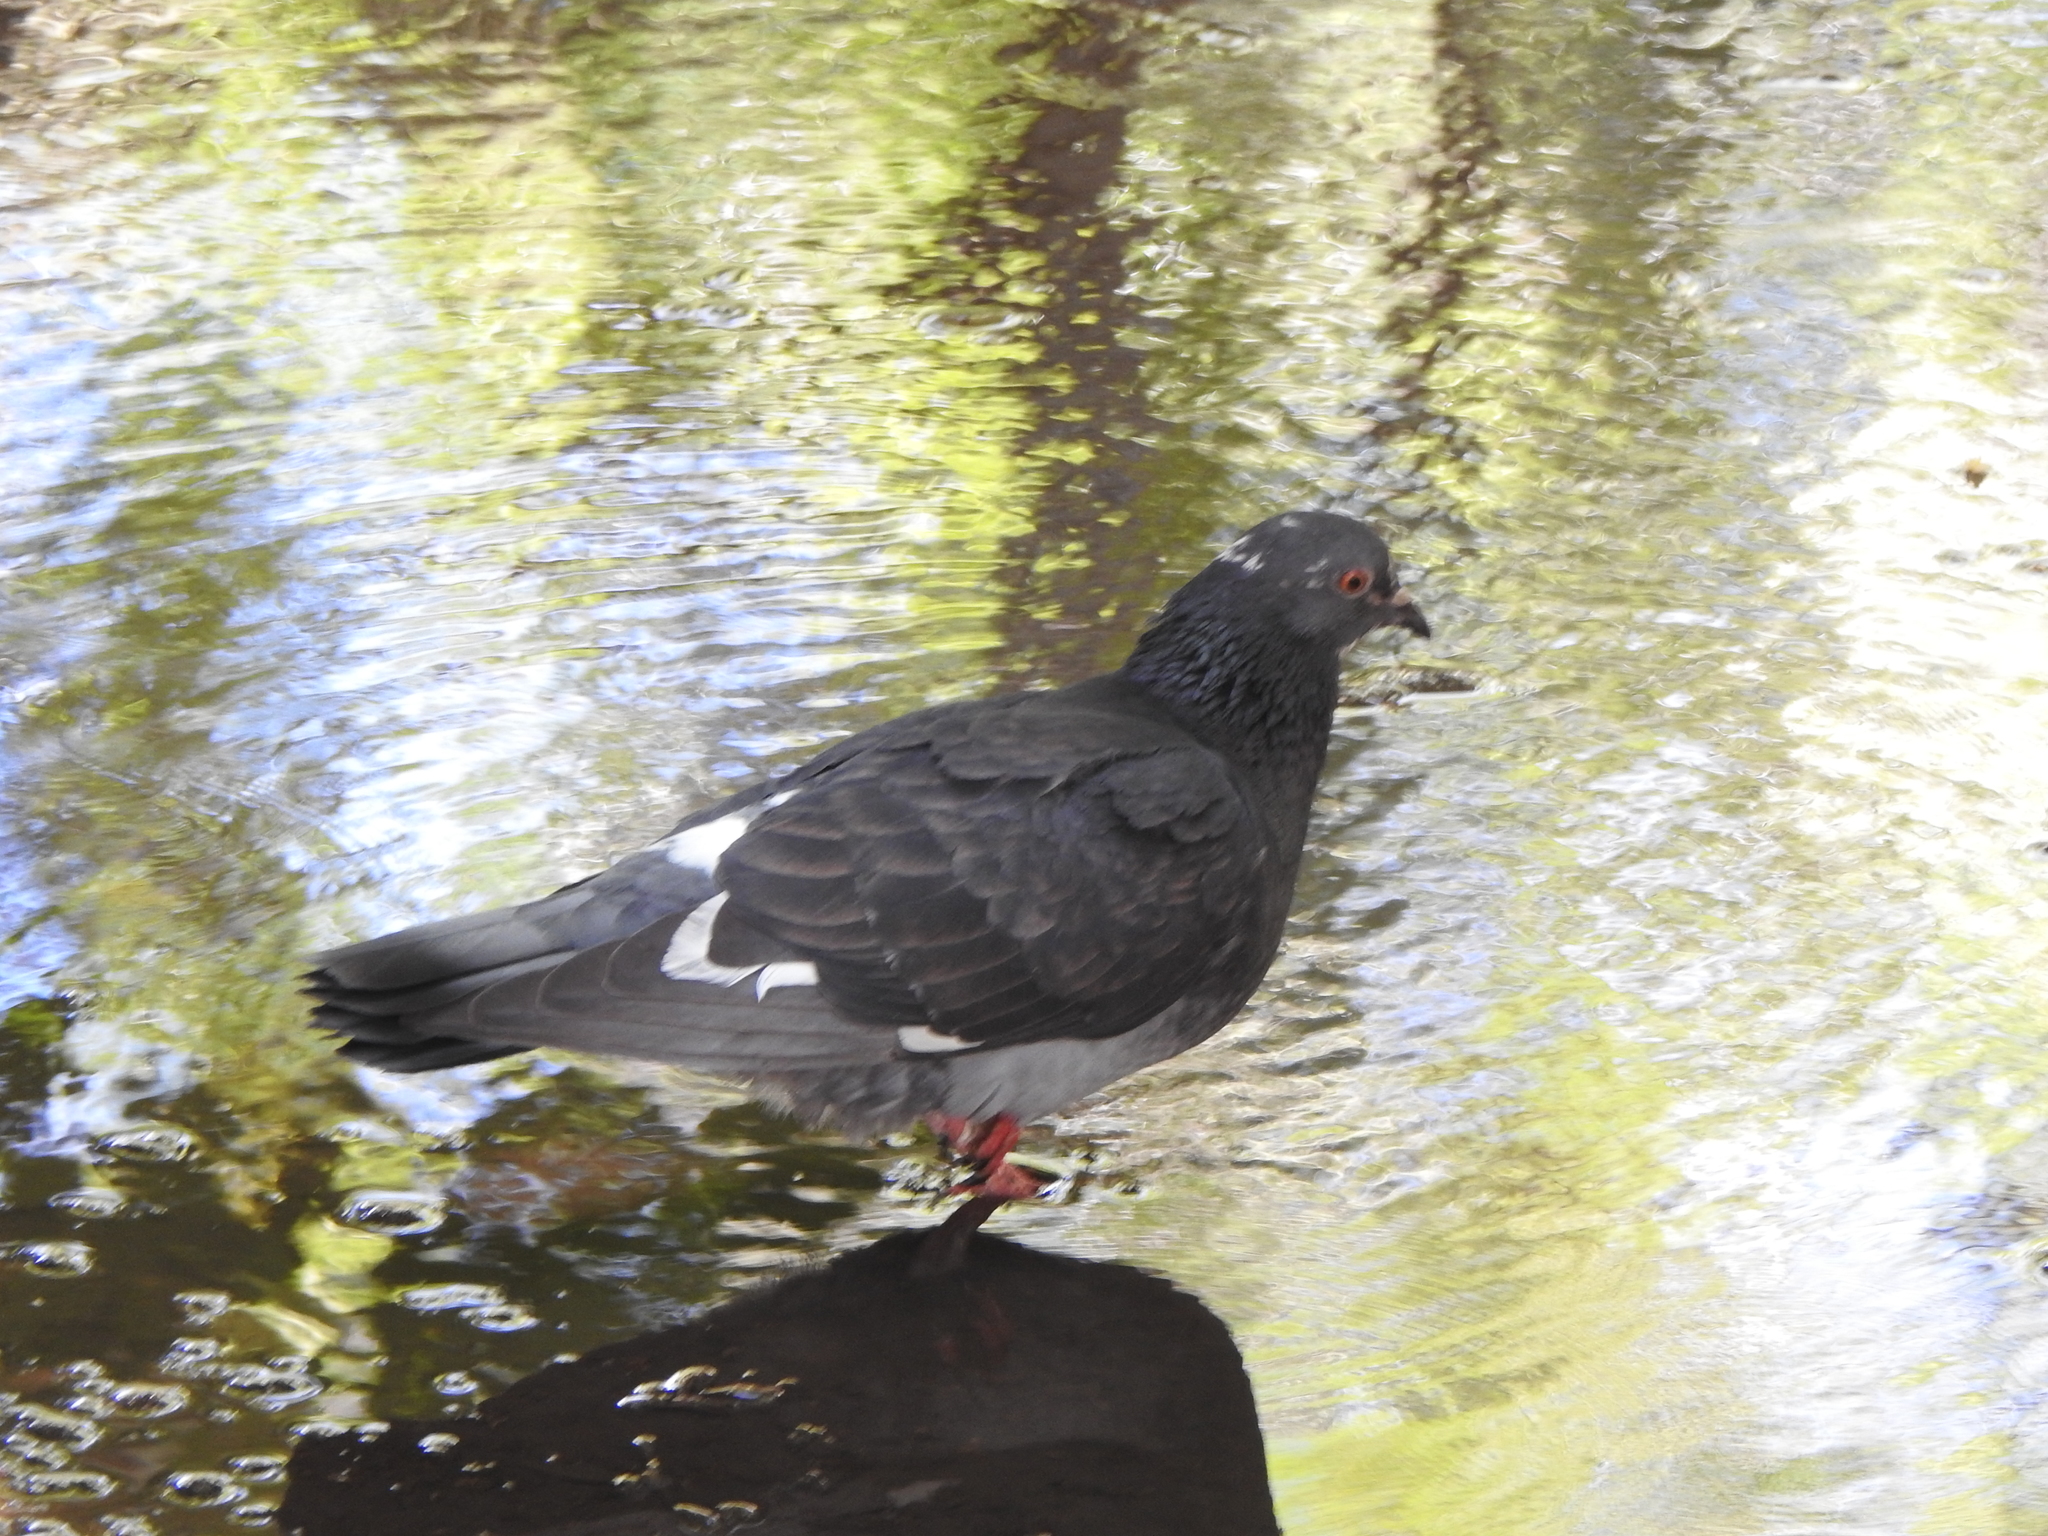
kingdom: Animalia
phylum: Chordata
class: Aves
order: Columbiformes
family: Columbidae
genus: Columba
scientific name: Columba livia
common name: Rock pigeon
